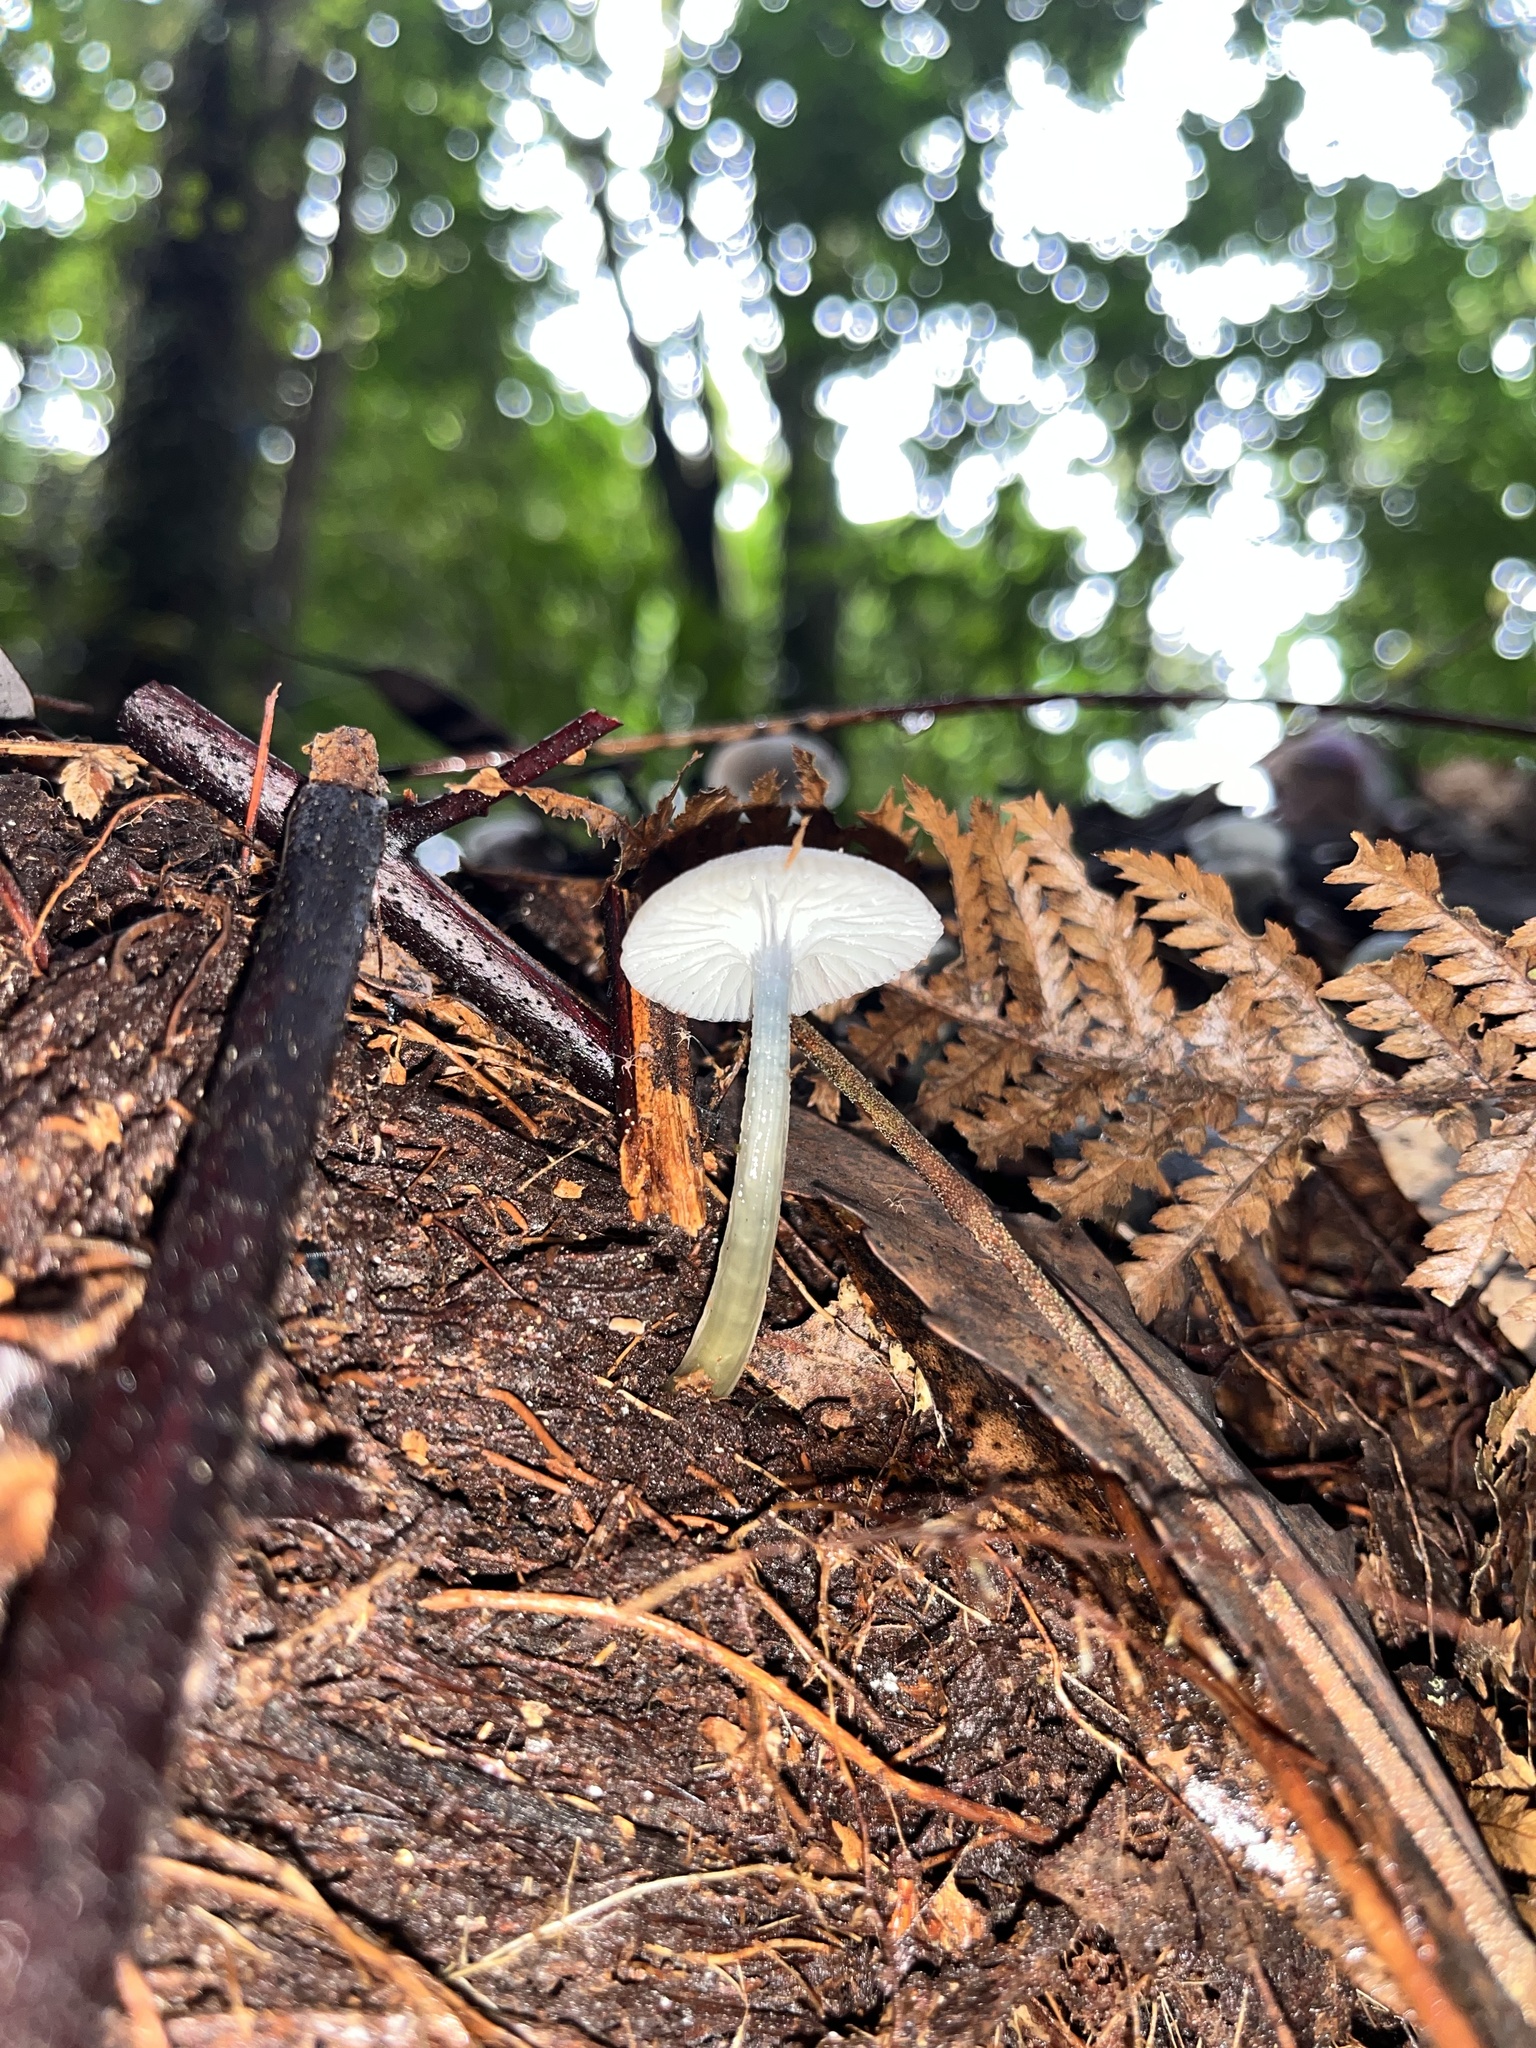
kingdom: Fungi
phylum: Basidiomycota
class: Agaricomycetes
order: Agaricales
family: Hygrophoraceae
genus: Gliophorus
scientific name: Gliophorus lilacipes
